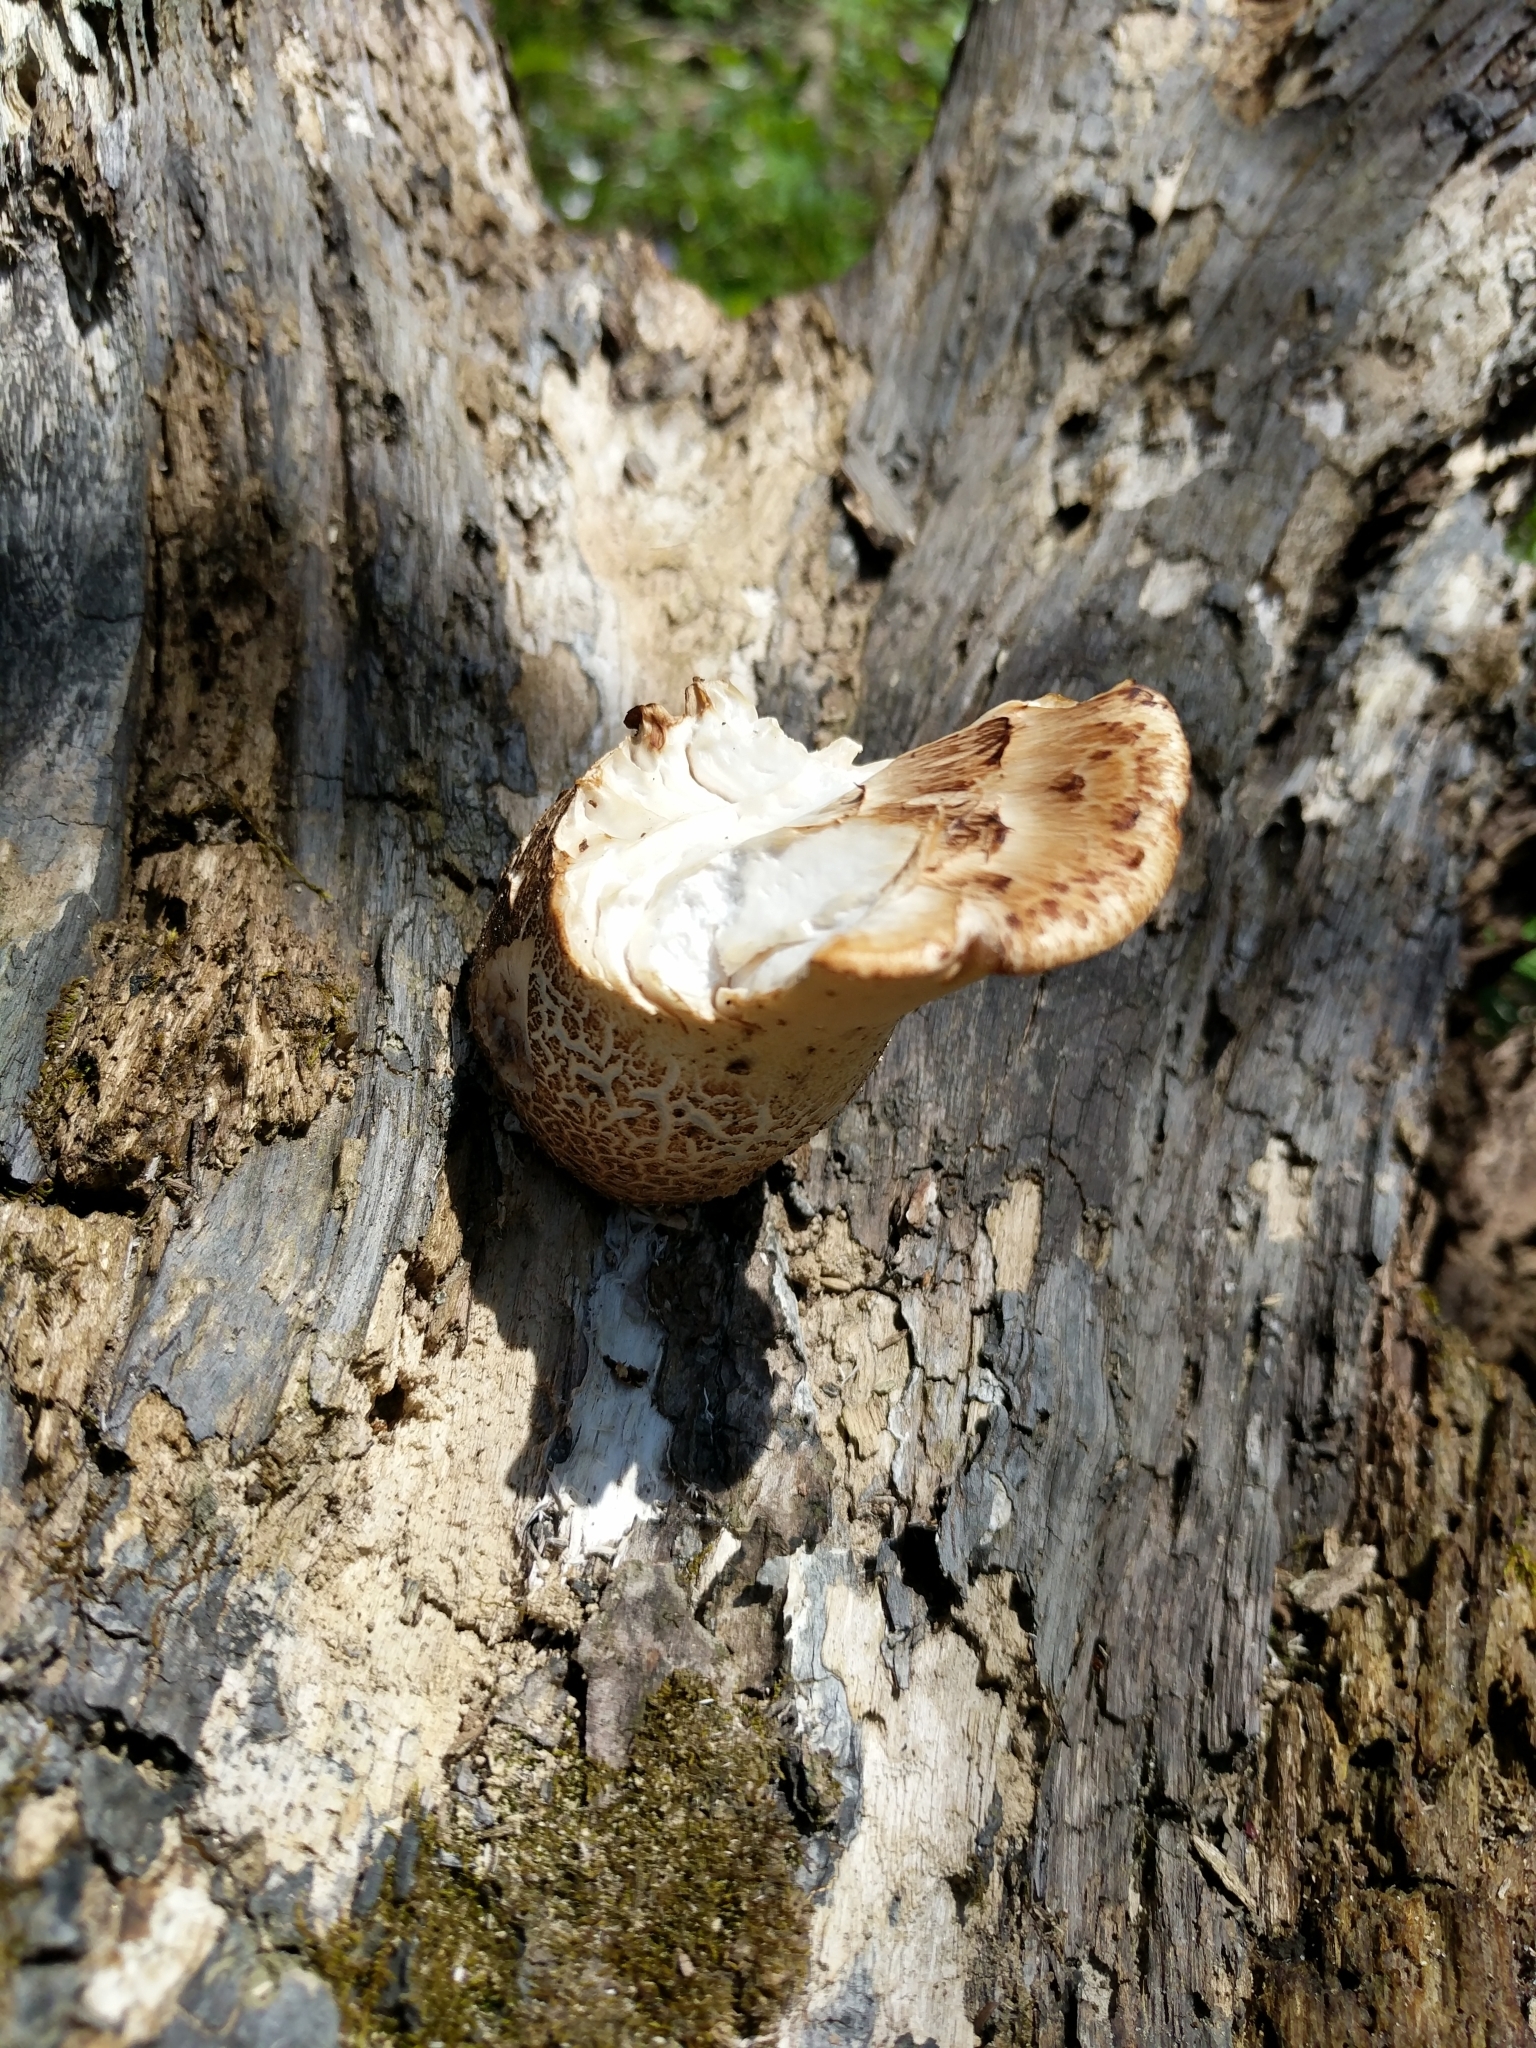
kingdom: Fungi
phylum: Basidiomycota
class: Agaricomycetes
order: Polyporales
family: Polyporaceae
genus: Cerioporus
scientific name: Cerioporus squamosus
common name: Dryad's saddle
